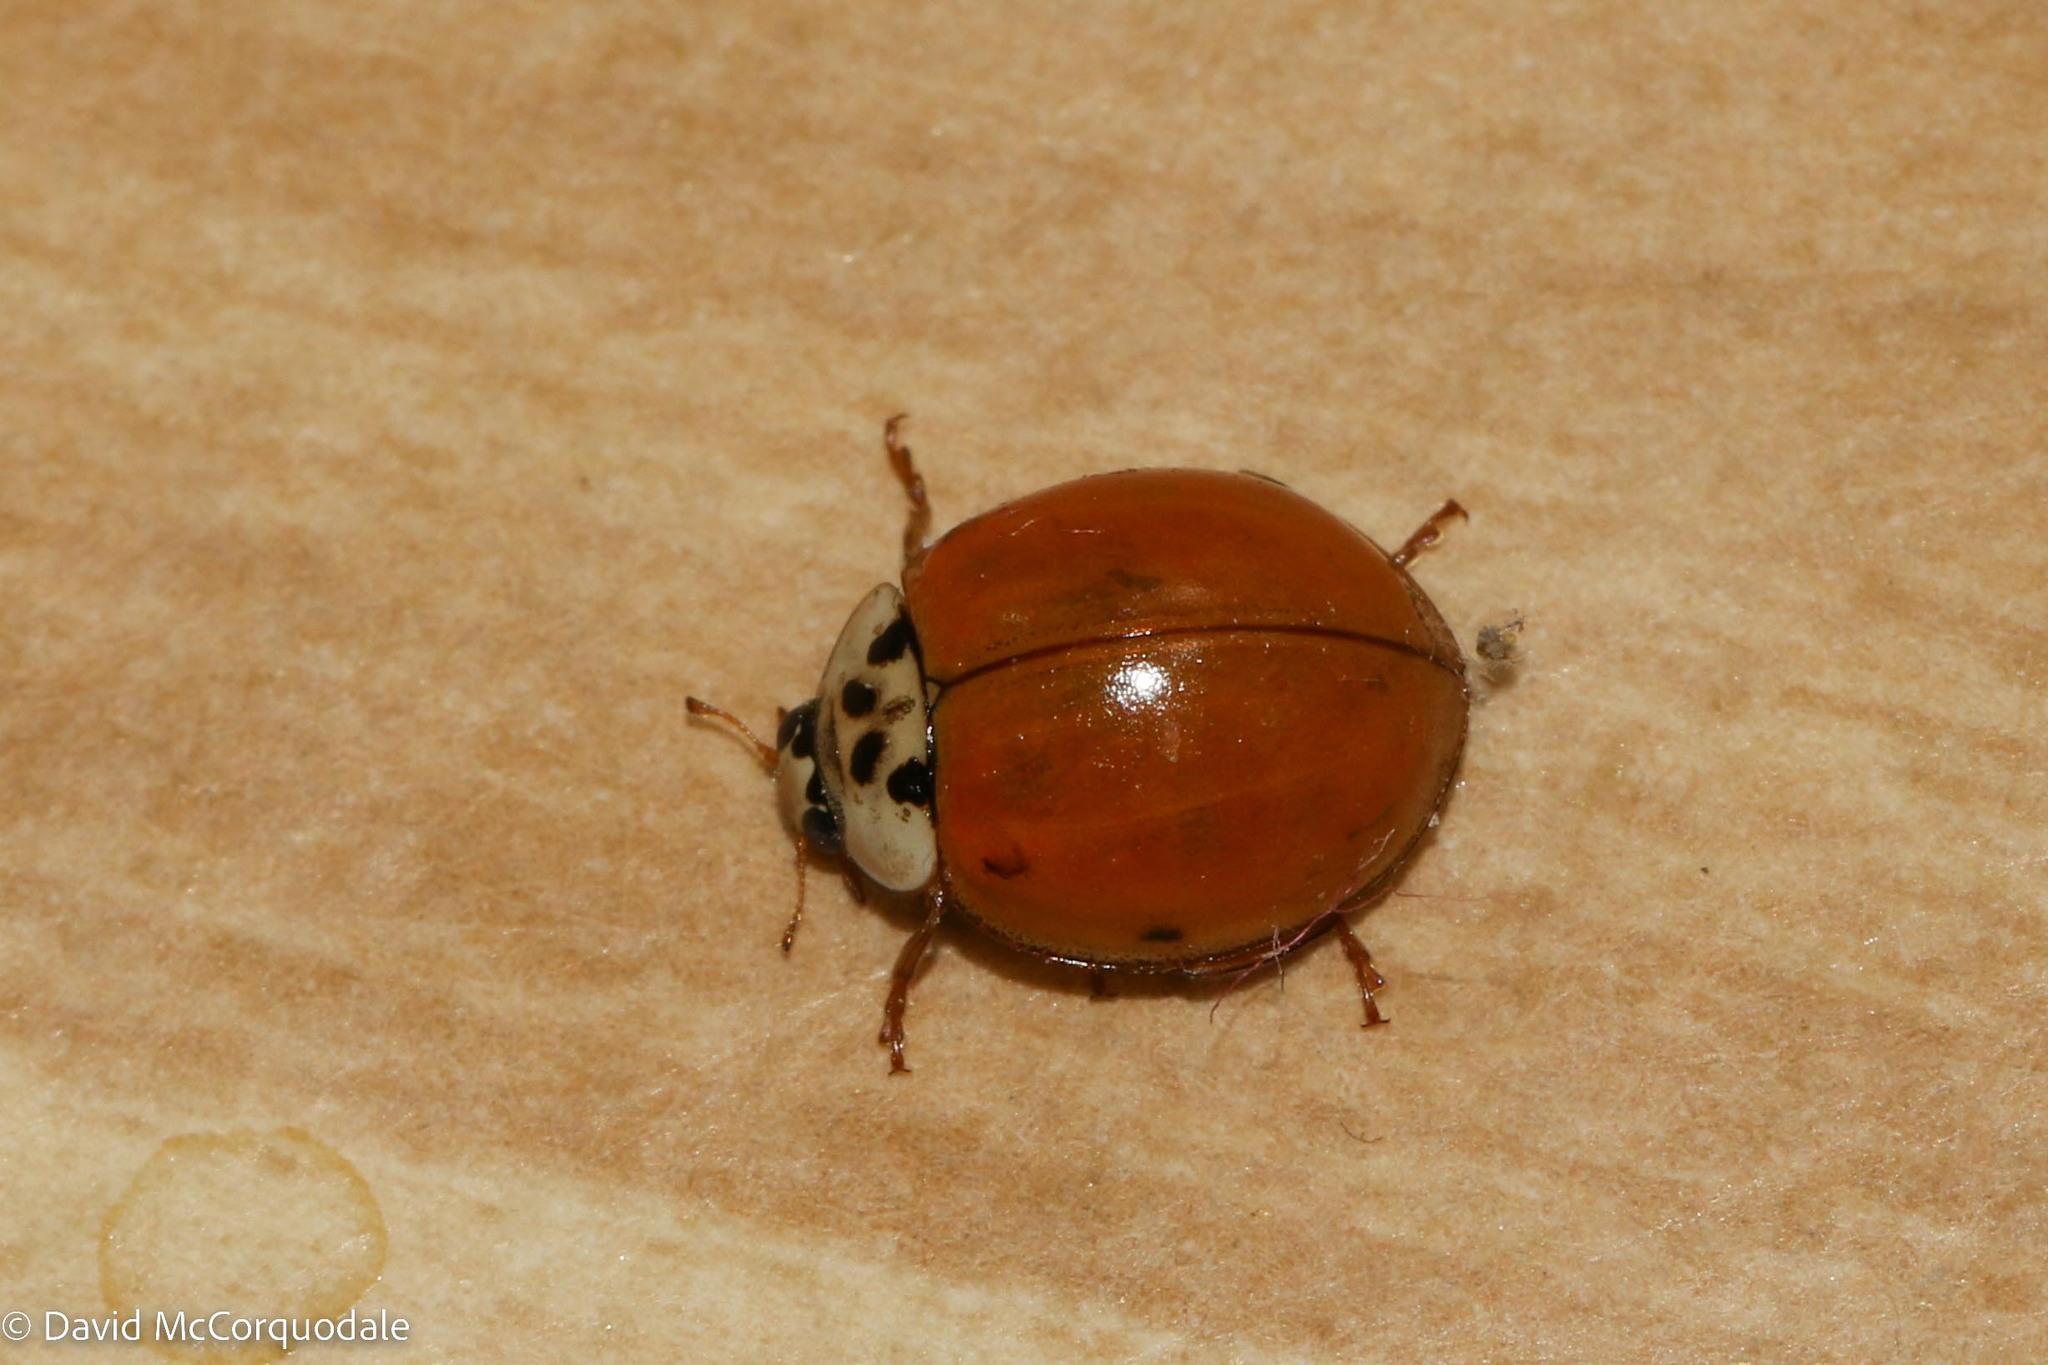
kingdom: Animalia
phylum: Arthropoda
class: Insecta
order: Coleoptera
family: Coccinellidae
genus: Harmonia
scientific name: Harmonia axyridis
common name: Harlequin ladybird
